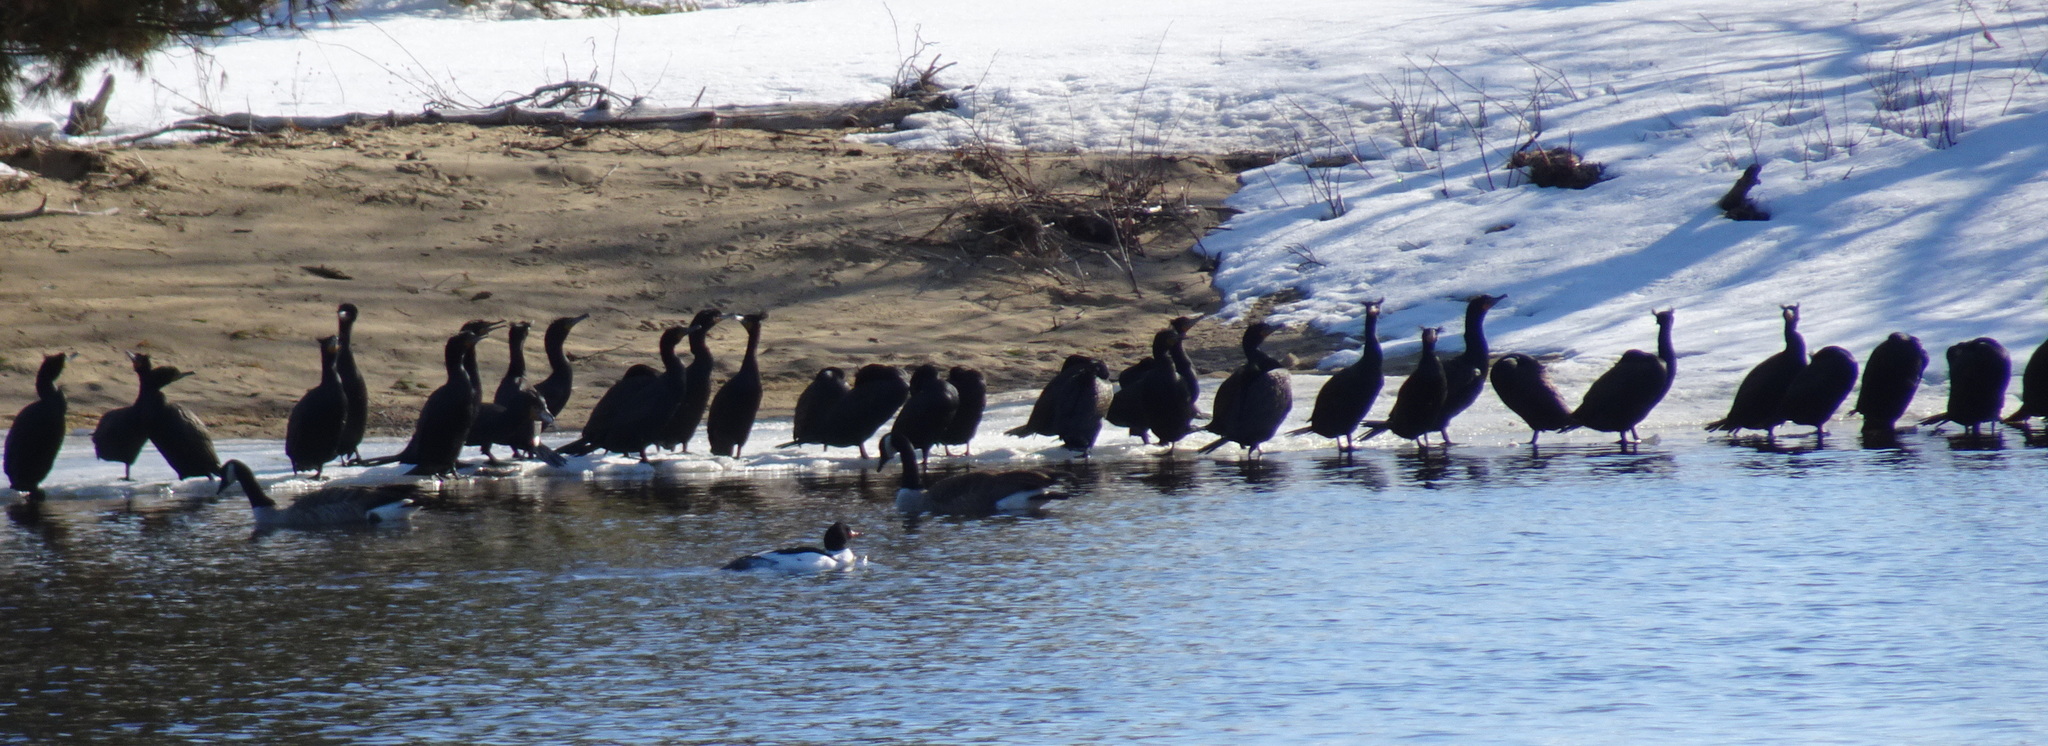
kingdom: Animalia
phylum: Chordata
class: Aves
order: Suliformes
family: Phalacrocoracidae
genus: Phalacrocorax
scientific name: Phalacrocorax auritus
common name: Double-crested cormorant
